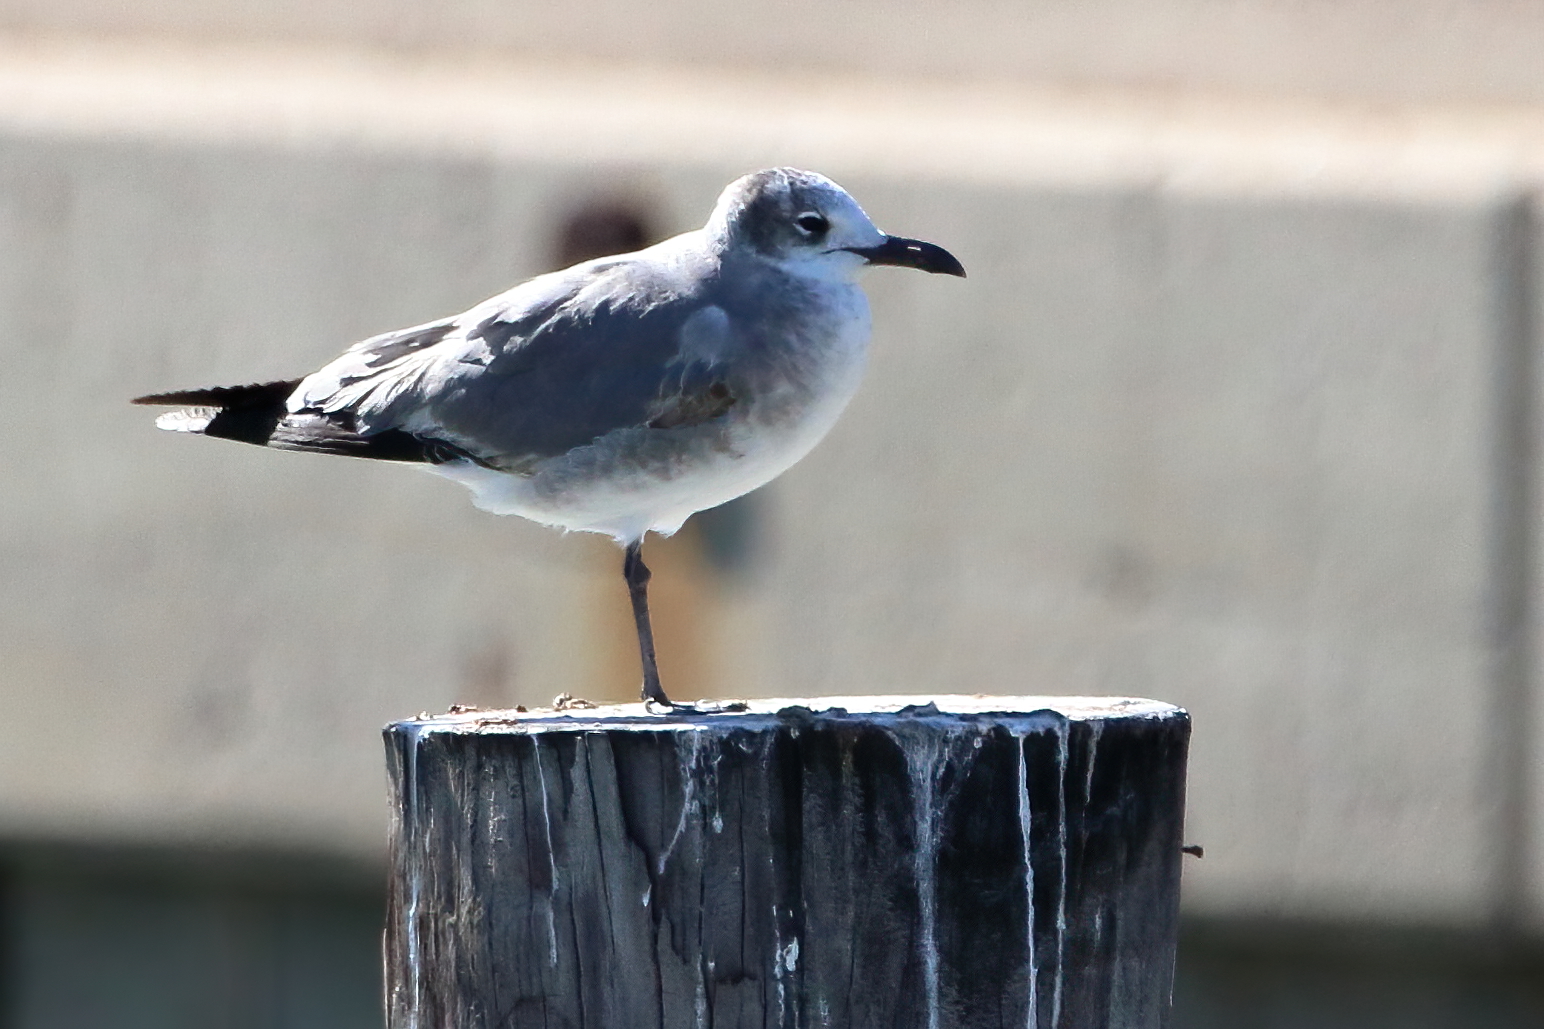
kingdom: Animalia
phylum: Chordata
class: Aves
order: Charadriiformes
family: Laridae
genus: Leucophaeus
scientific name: Leucophaeus atricilla
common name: Laughing gull
